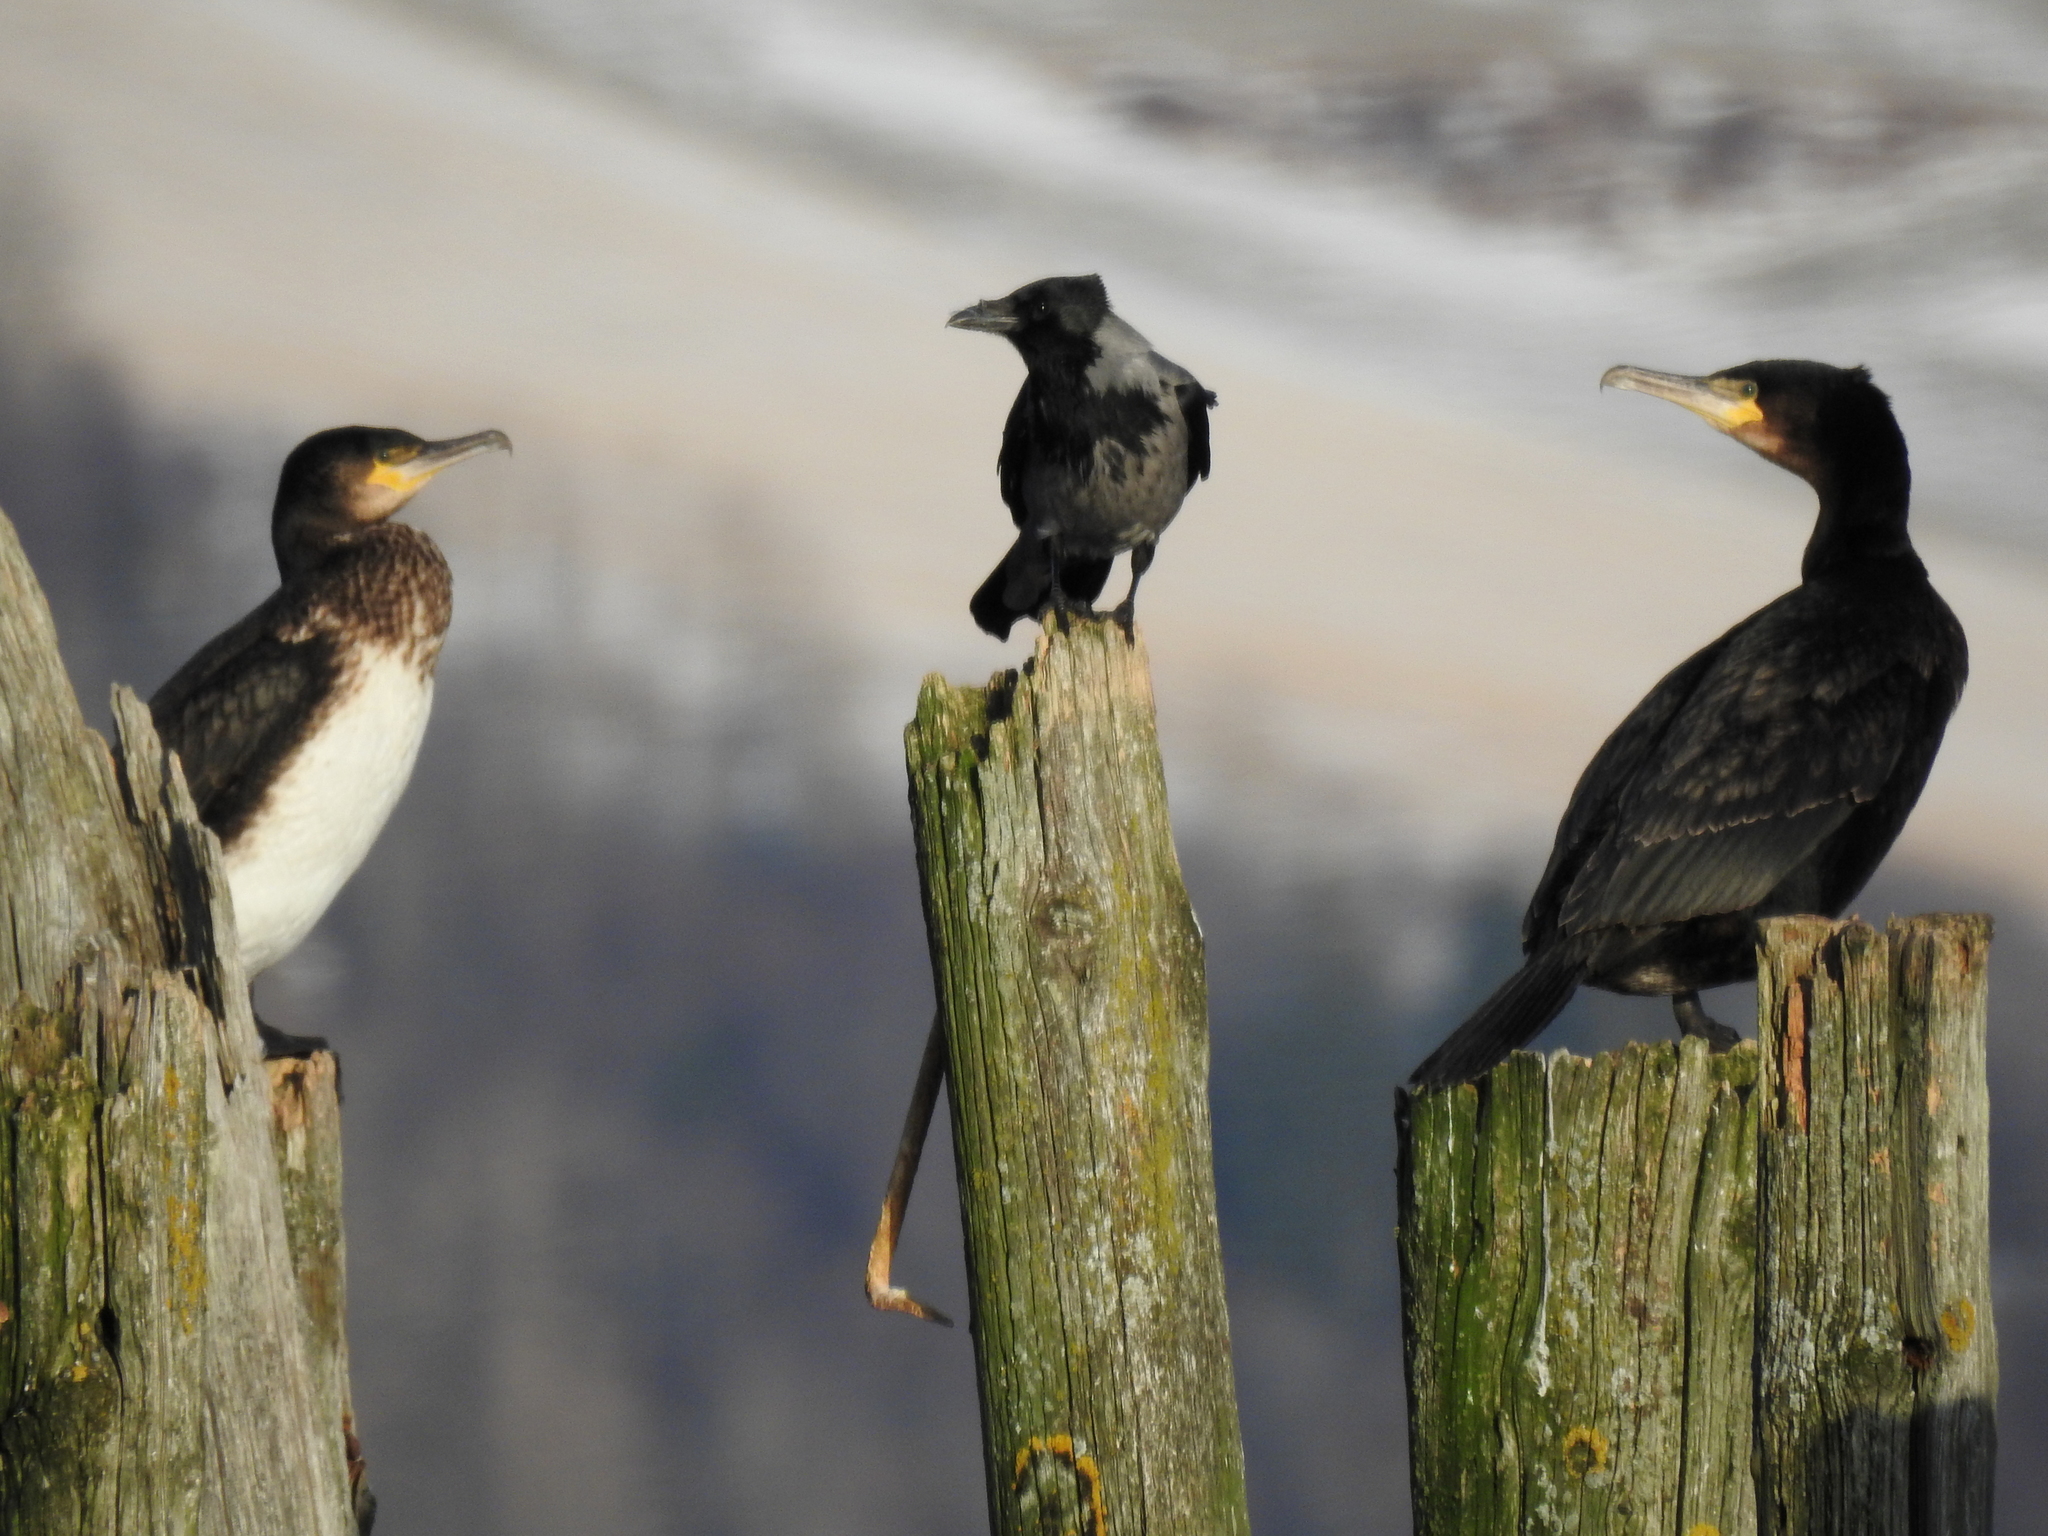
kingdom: Animalia
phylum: Chordata
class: Aves
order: Suliformes
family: Phalacrocoracidae
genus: Phalacrocorax
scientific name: Phalacrocorax carbo
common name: Great cormorant
